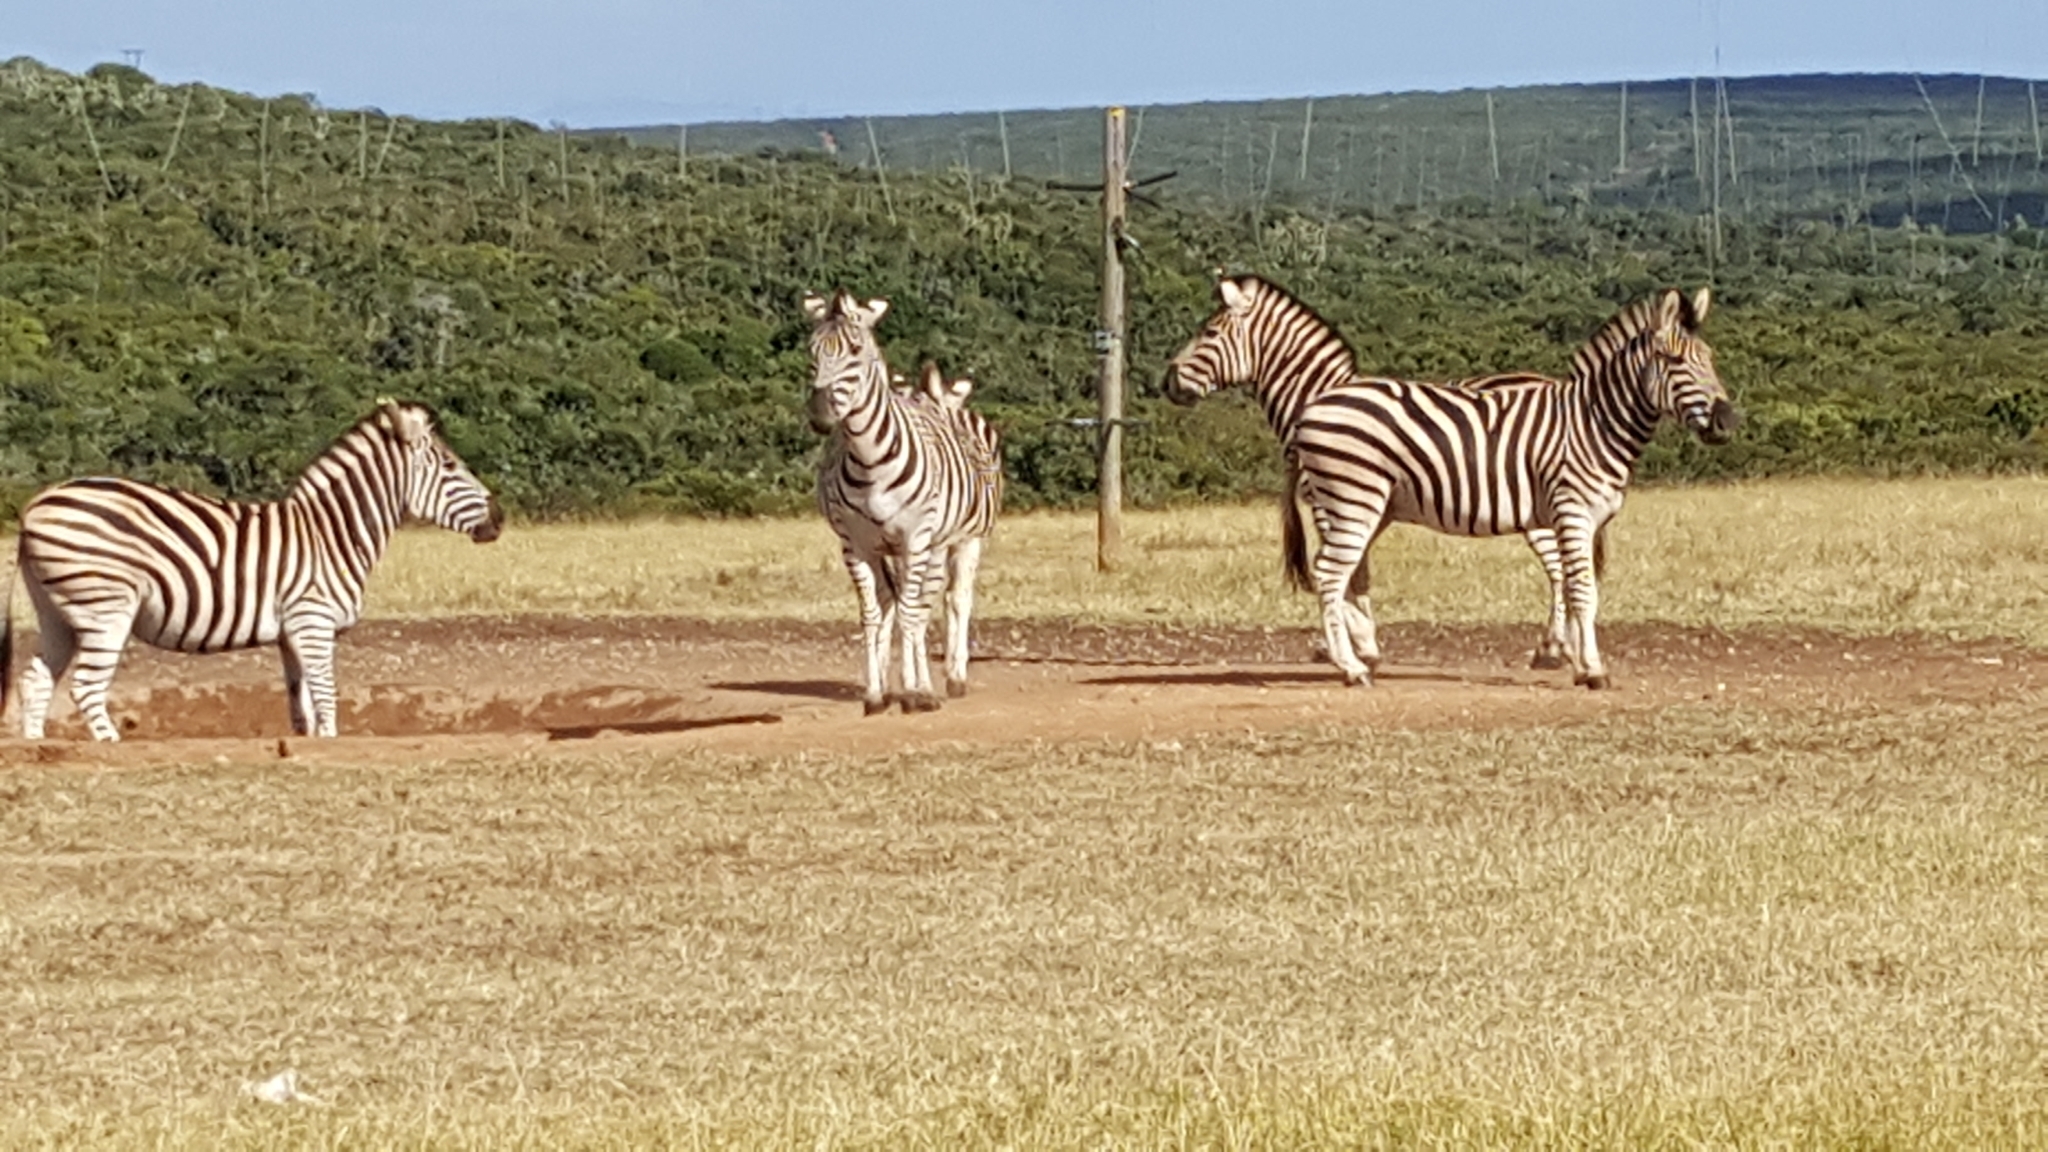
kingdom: Animalia
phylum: Chordata
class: Mammalia
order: Perissodactyla
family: Equidae
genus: Equus
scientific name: Equus quagga
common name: Plains zebra
